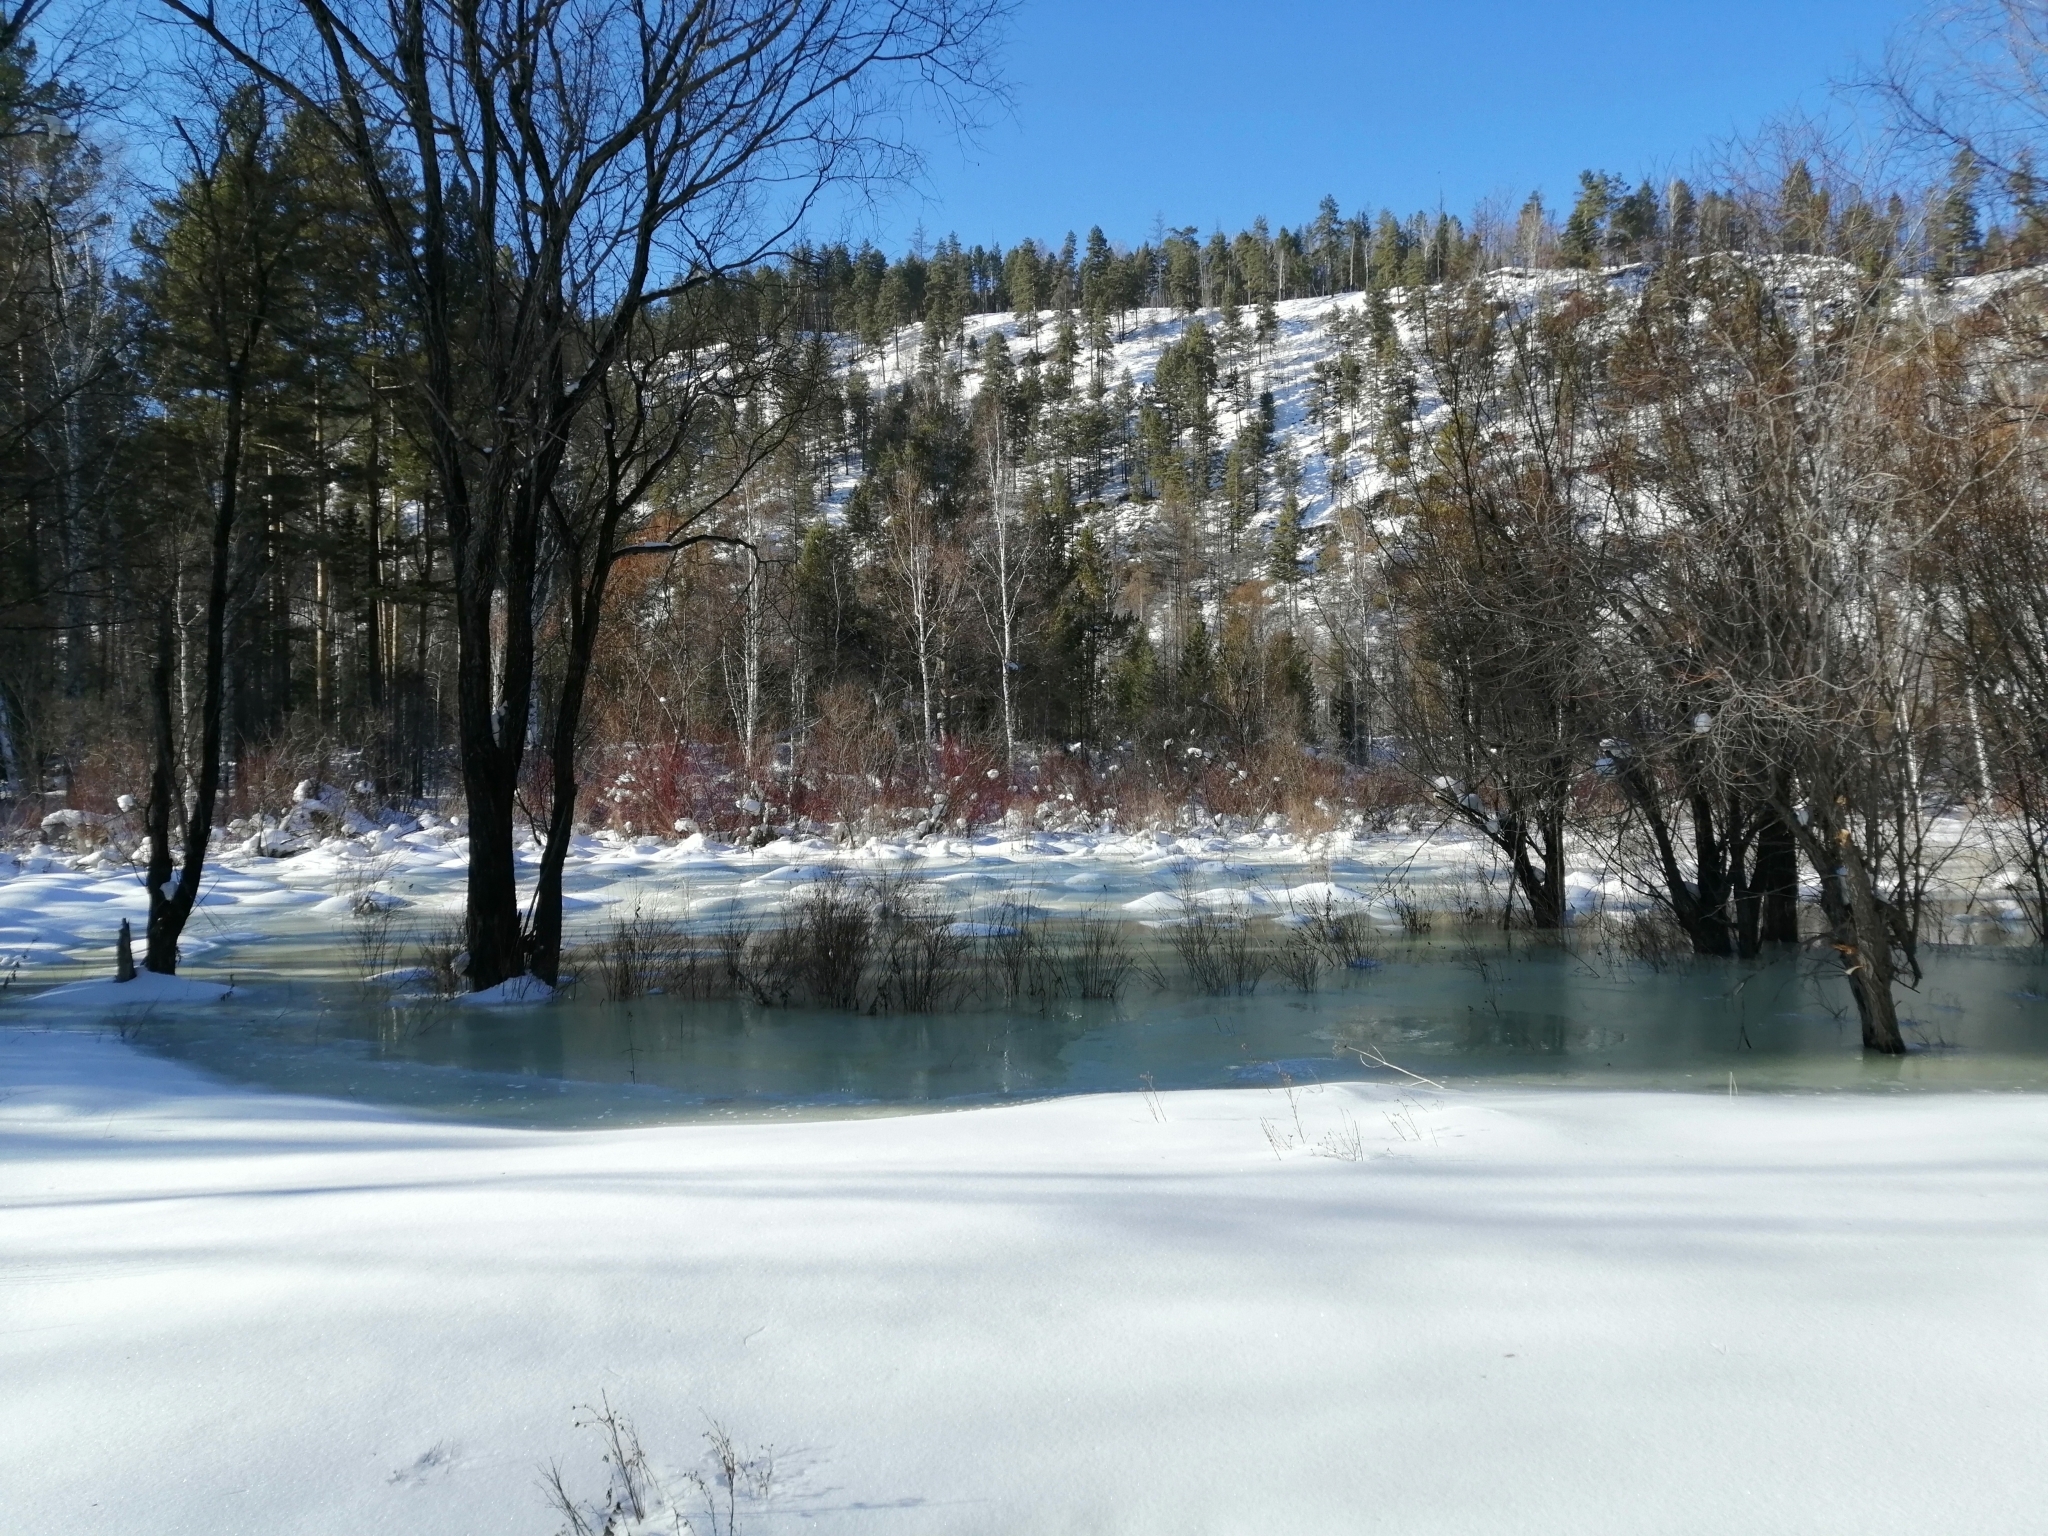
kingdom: Plantae
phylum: Tracheophyta
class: Pinopsida
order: Pinales
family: Pinaceae
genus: Pinus
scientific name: Pinus sylvestris
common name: Scots pine
